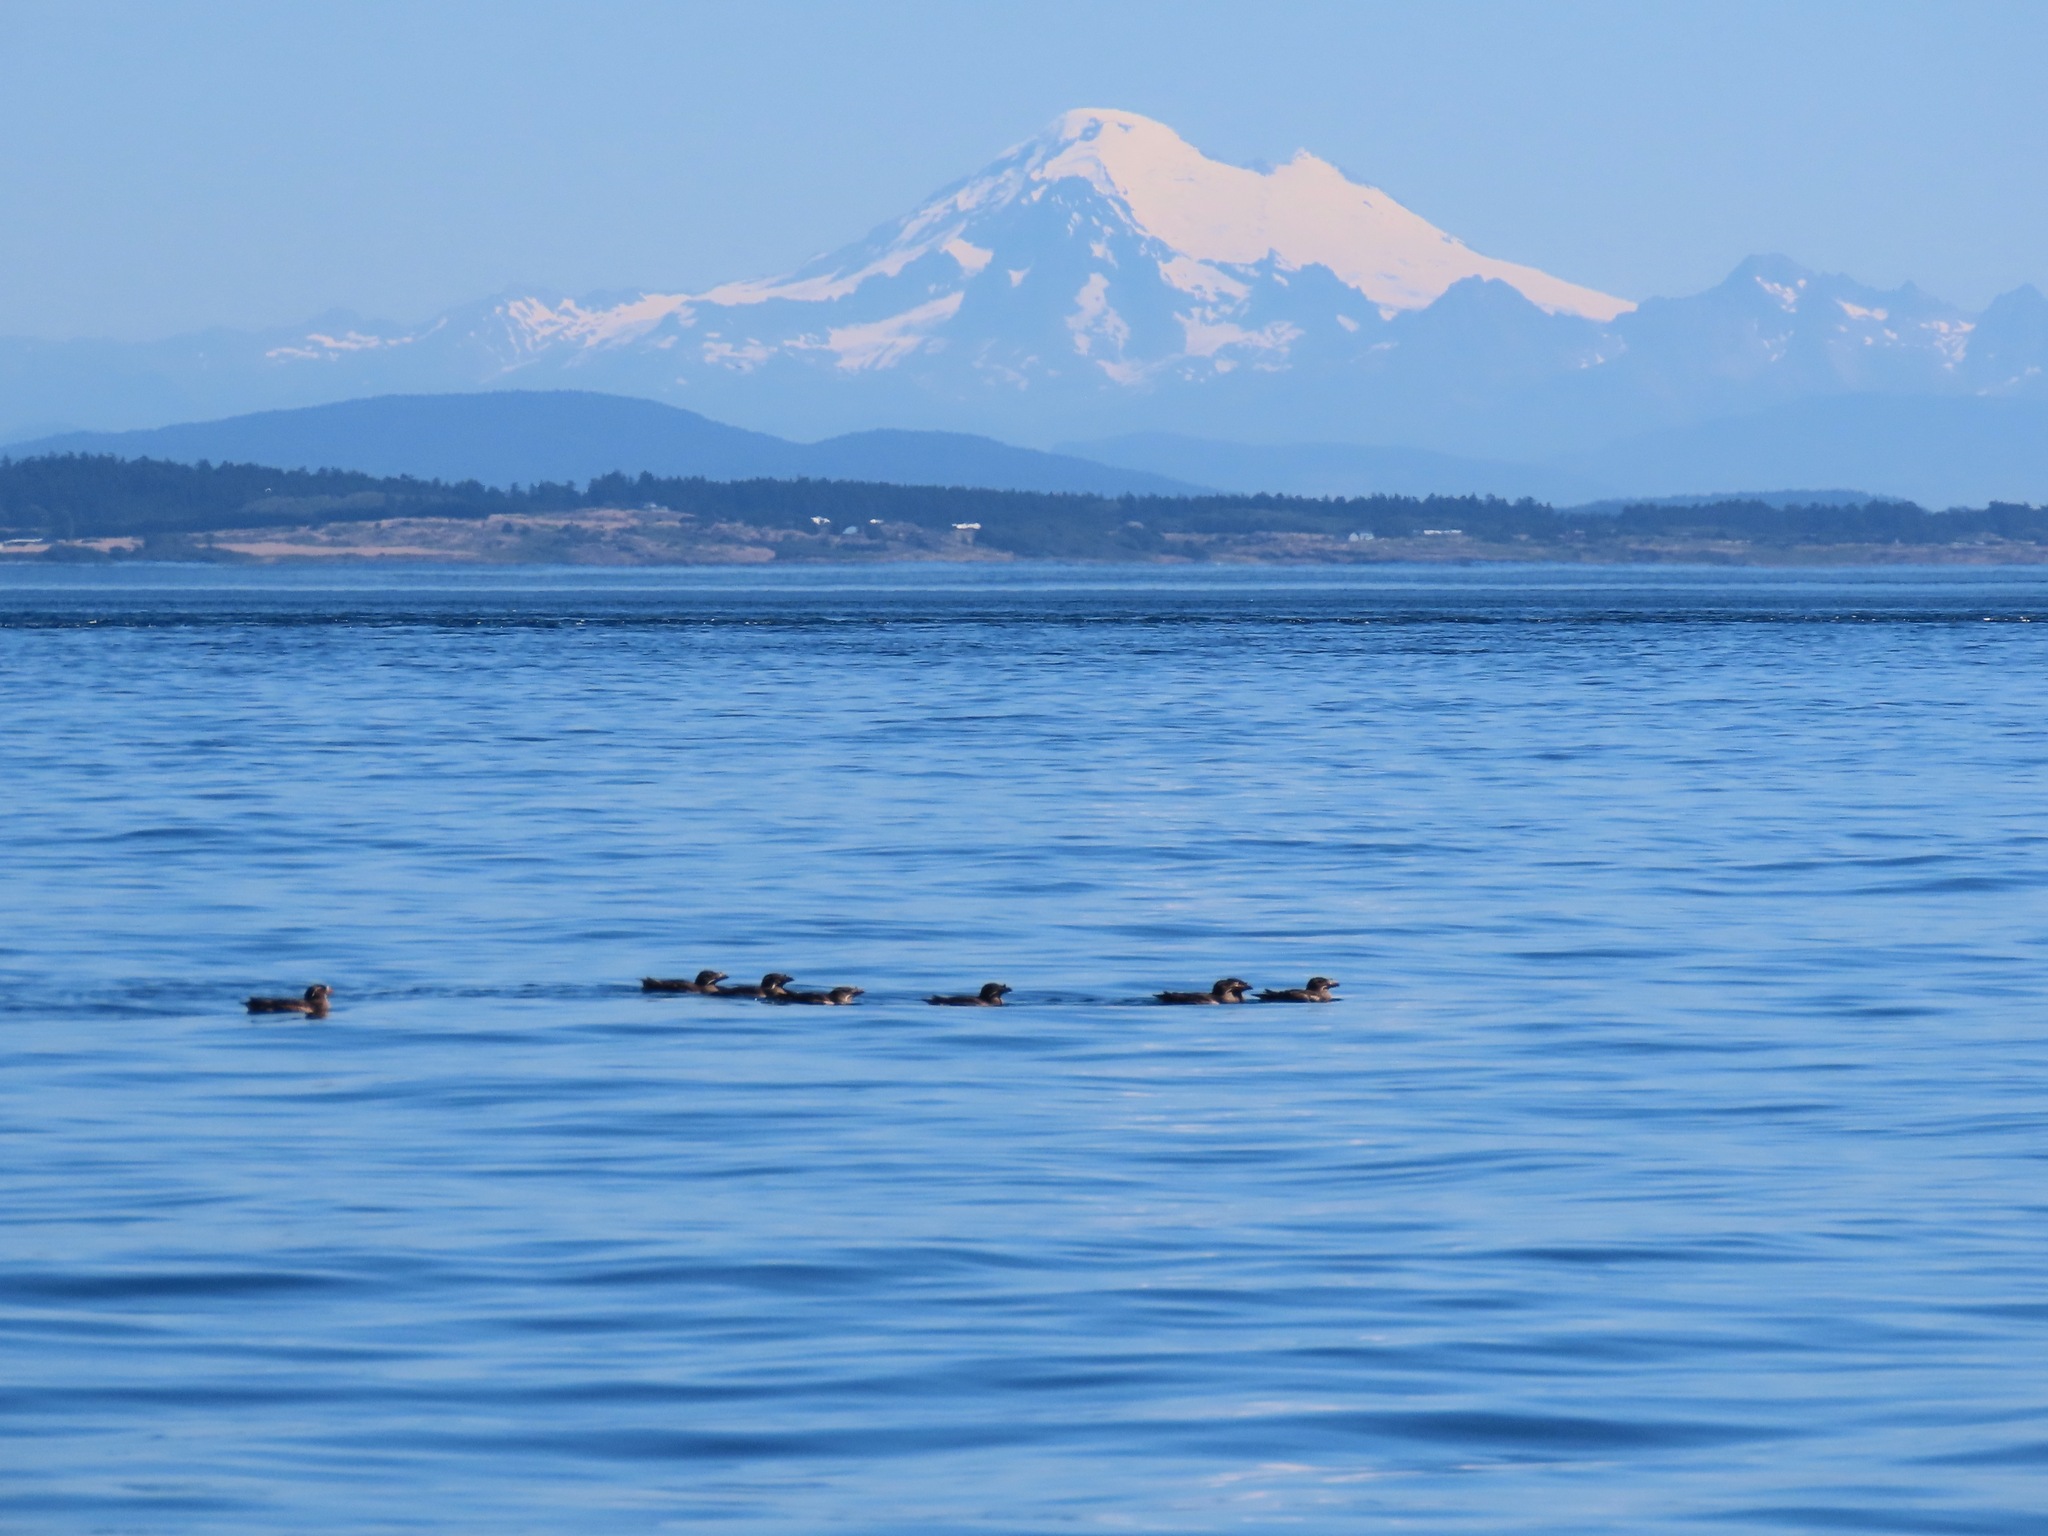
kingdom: Animalia
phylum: Chordata
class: Aves
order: Charadriiformes
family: Alcidae
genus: Cerorhinca
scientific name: Cerorhinca monocerata
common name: Rhinoceros auklet
